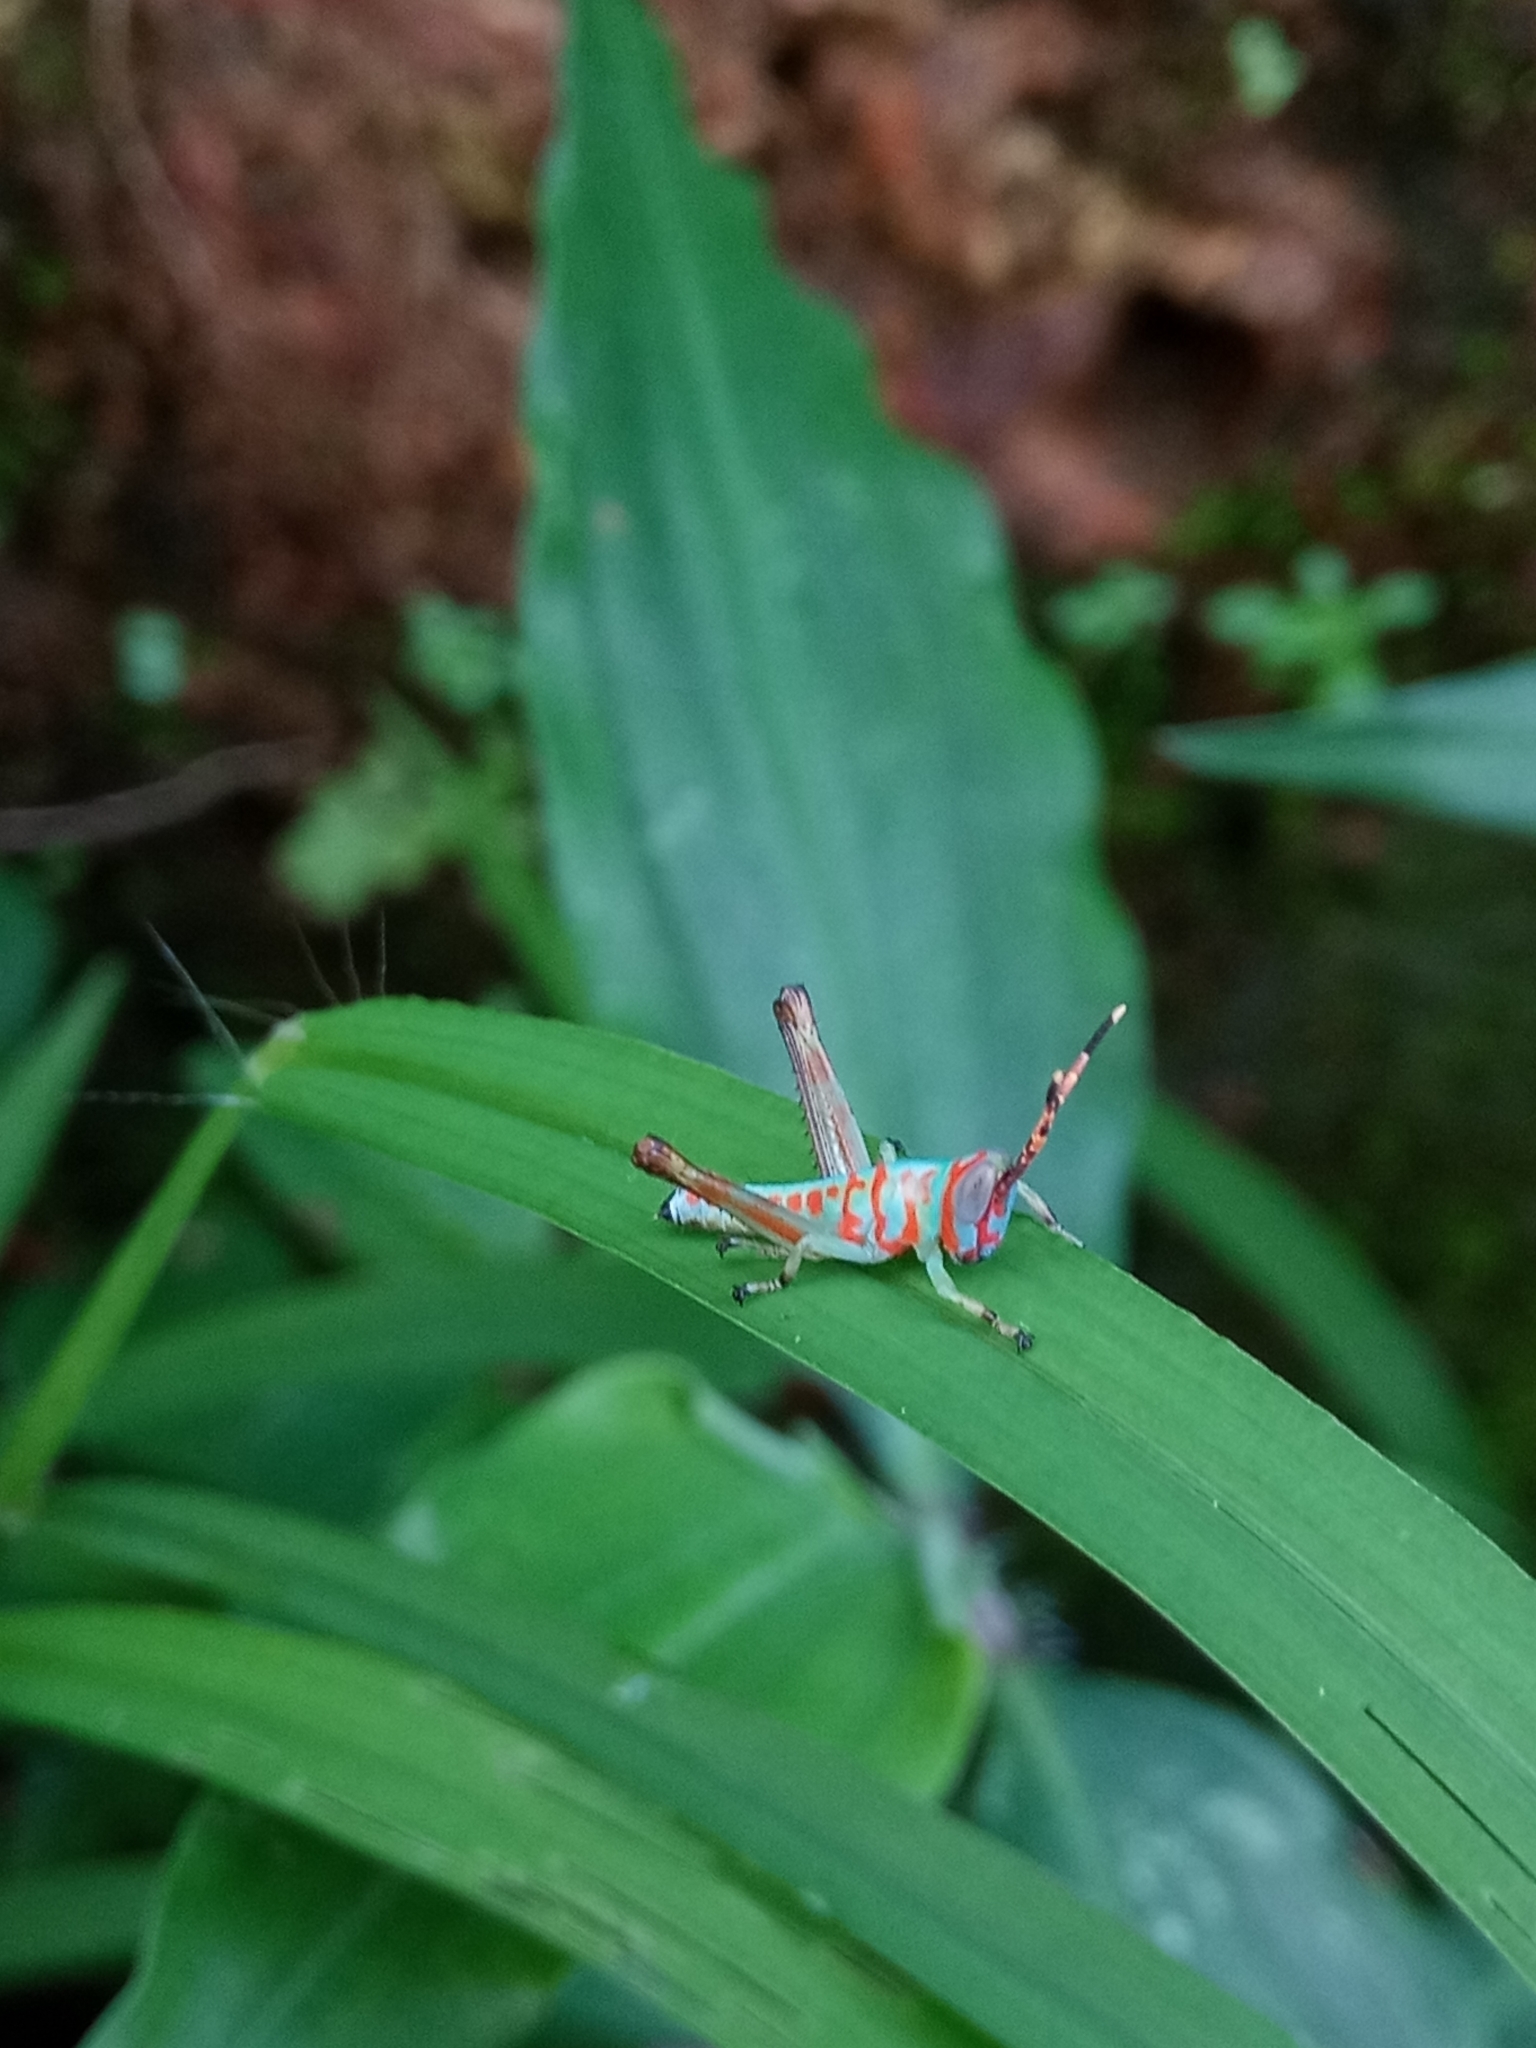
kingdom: Animalia
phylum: Arthropoda
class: Insecta
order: Orthoptera
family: Acrididae
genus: Pirithoicus
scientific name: Pirithoicus ophthalmicus
